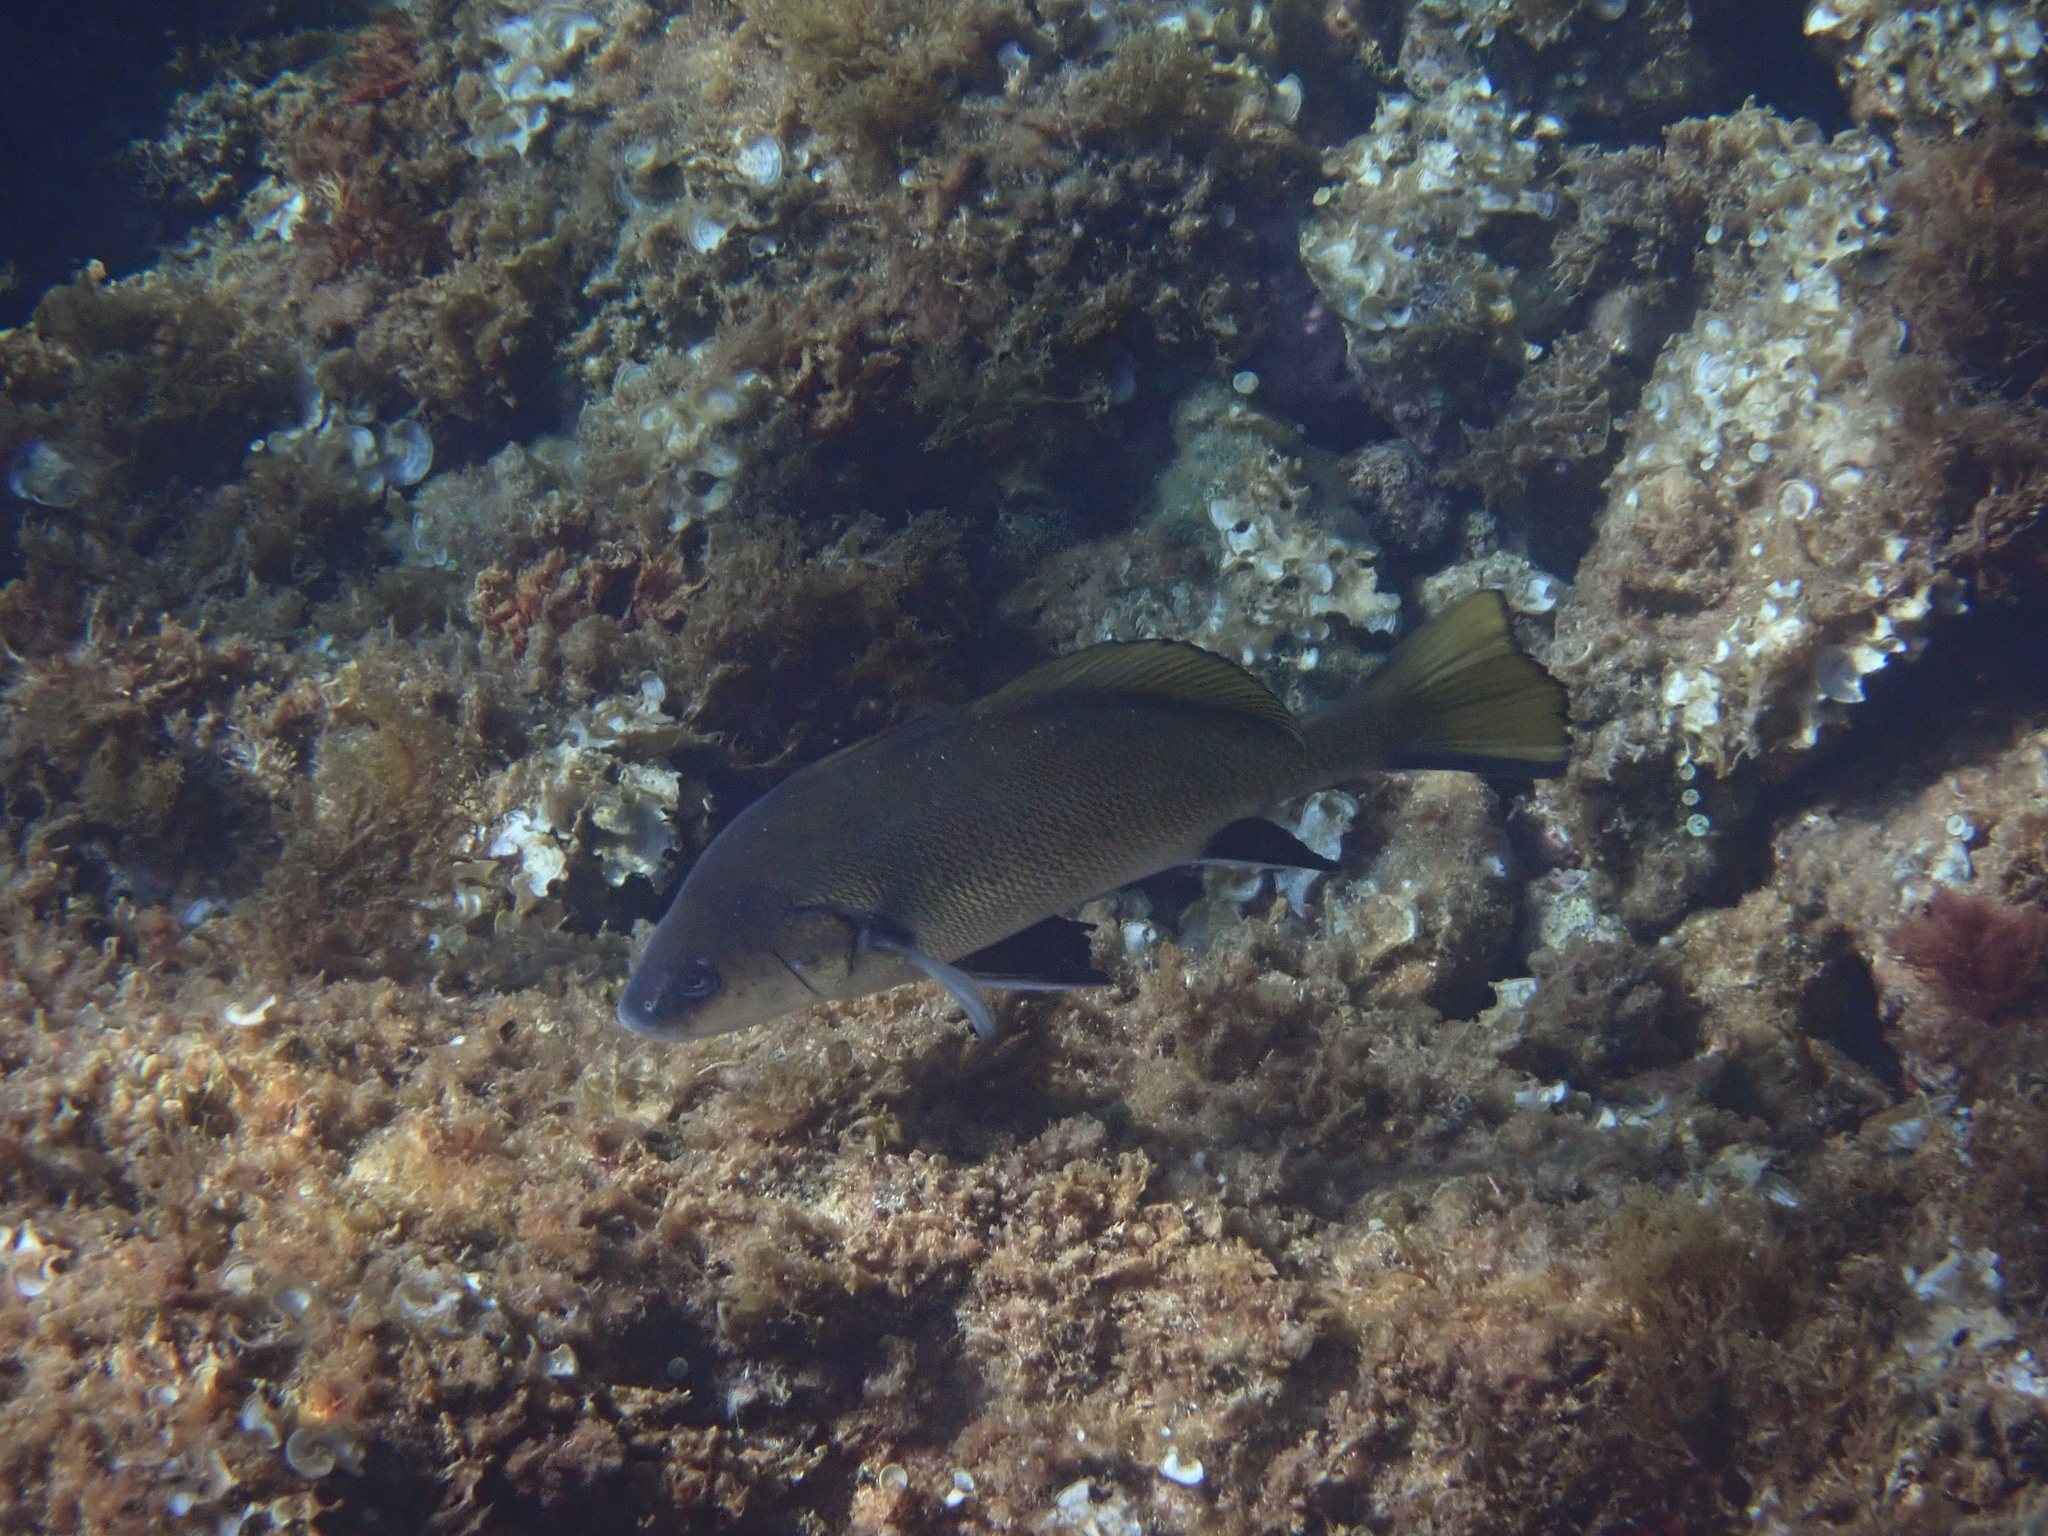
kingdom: Animalia
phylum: Chordata
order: Perciformes
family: Sciaenidae
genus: Sciaena
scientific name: Sciaena umbra
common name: Brown meagre
